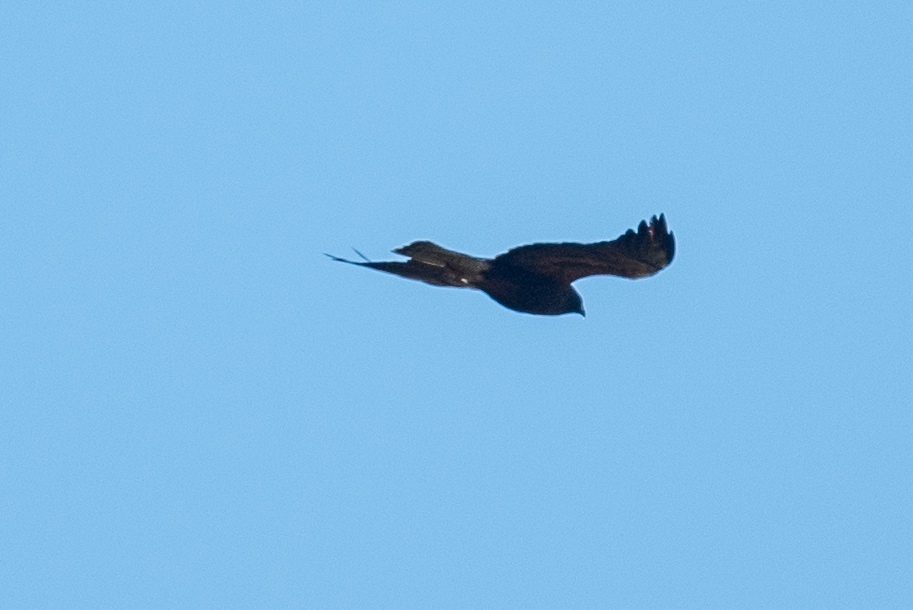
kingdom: Animalia
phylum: Chordata
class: Aves
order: Accipitriformes
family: Accipitridae
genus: Buteo
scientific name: Buteo swainsoni
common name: Swainson's hawk
